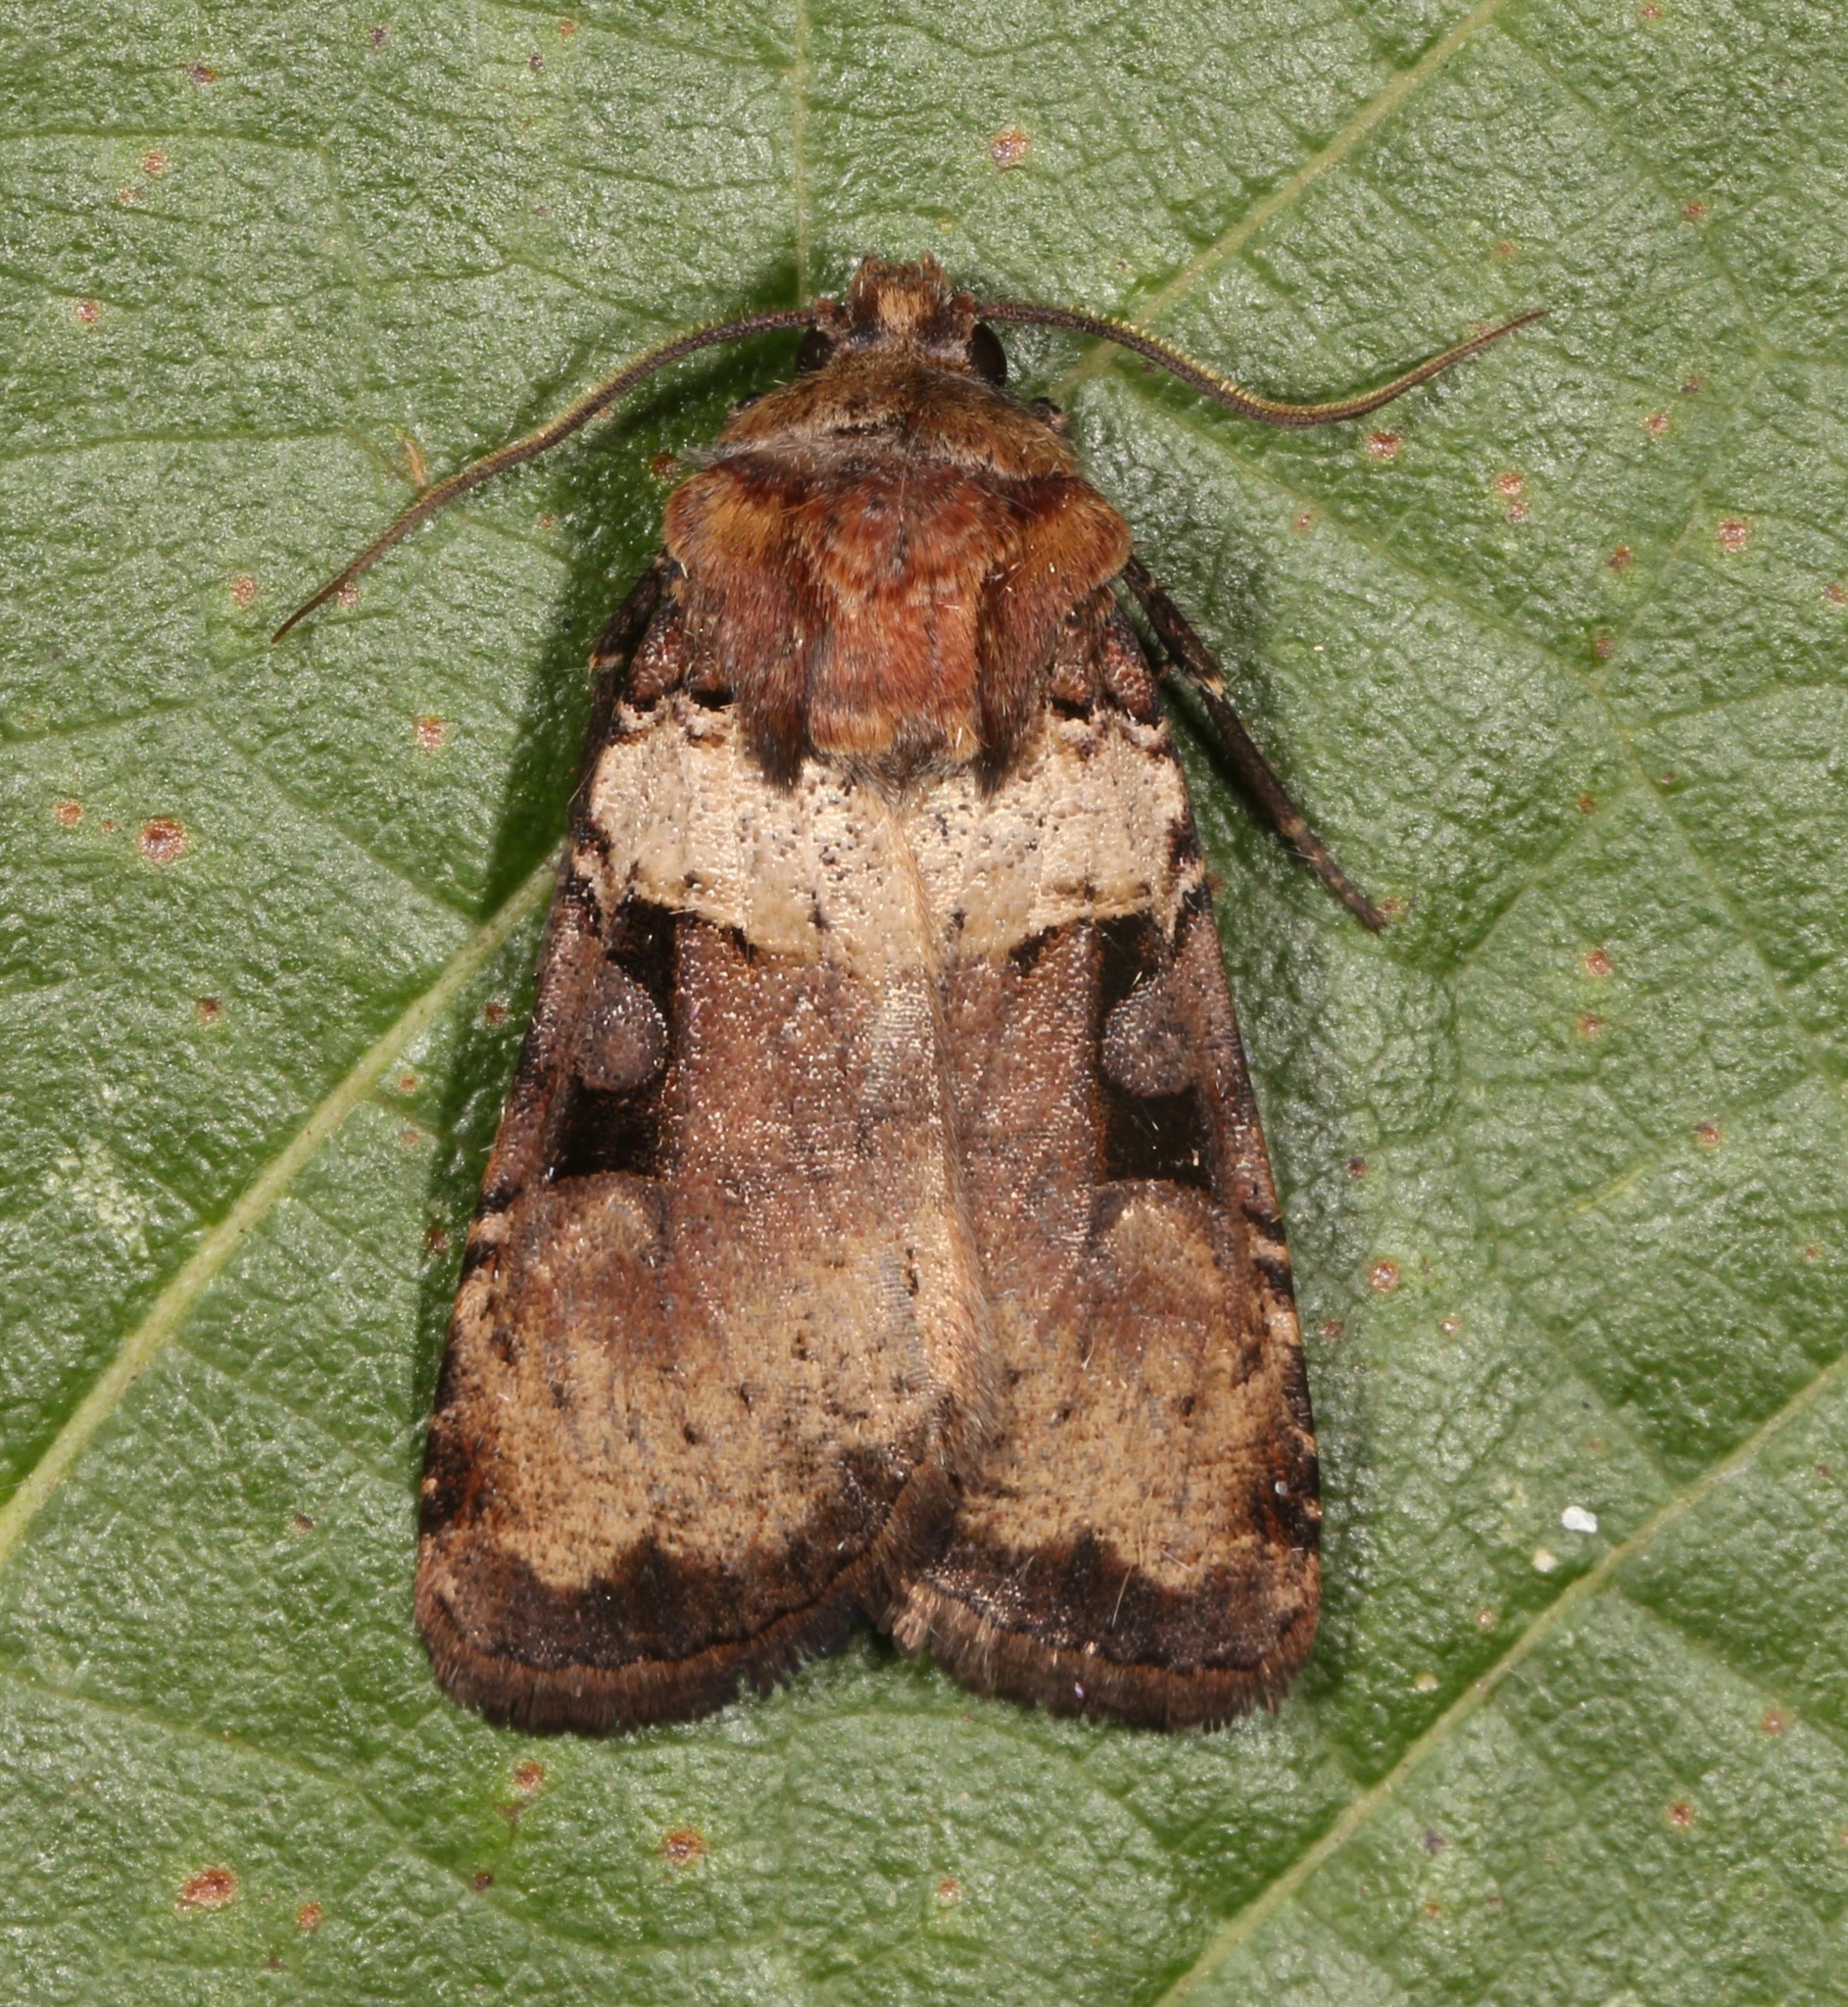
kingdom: Animalia
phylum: Arthropoda
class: Insecta
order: Lepidoptera
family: Noctuidae
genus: Richia
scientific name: Richia serano
